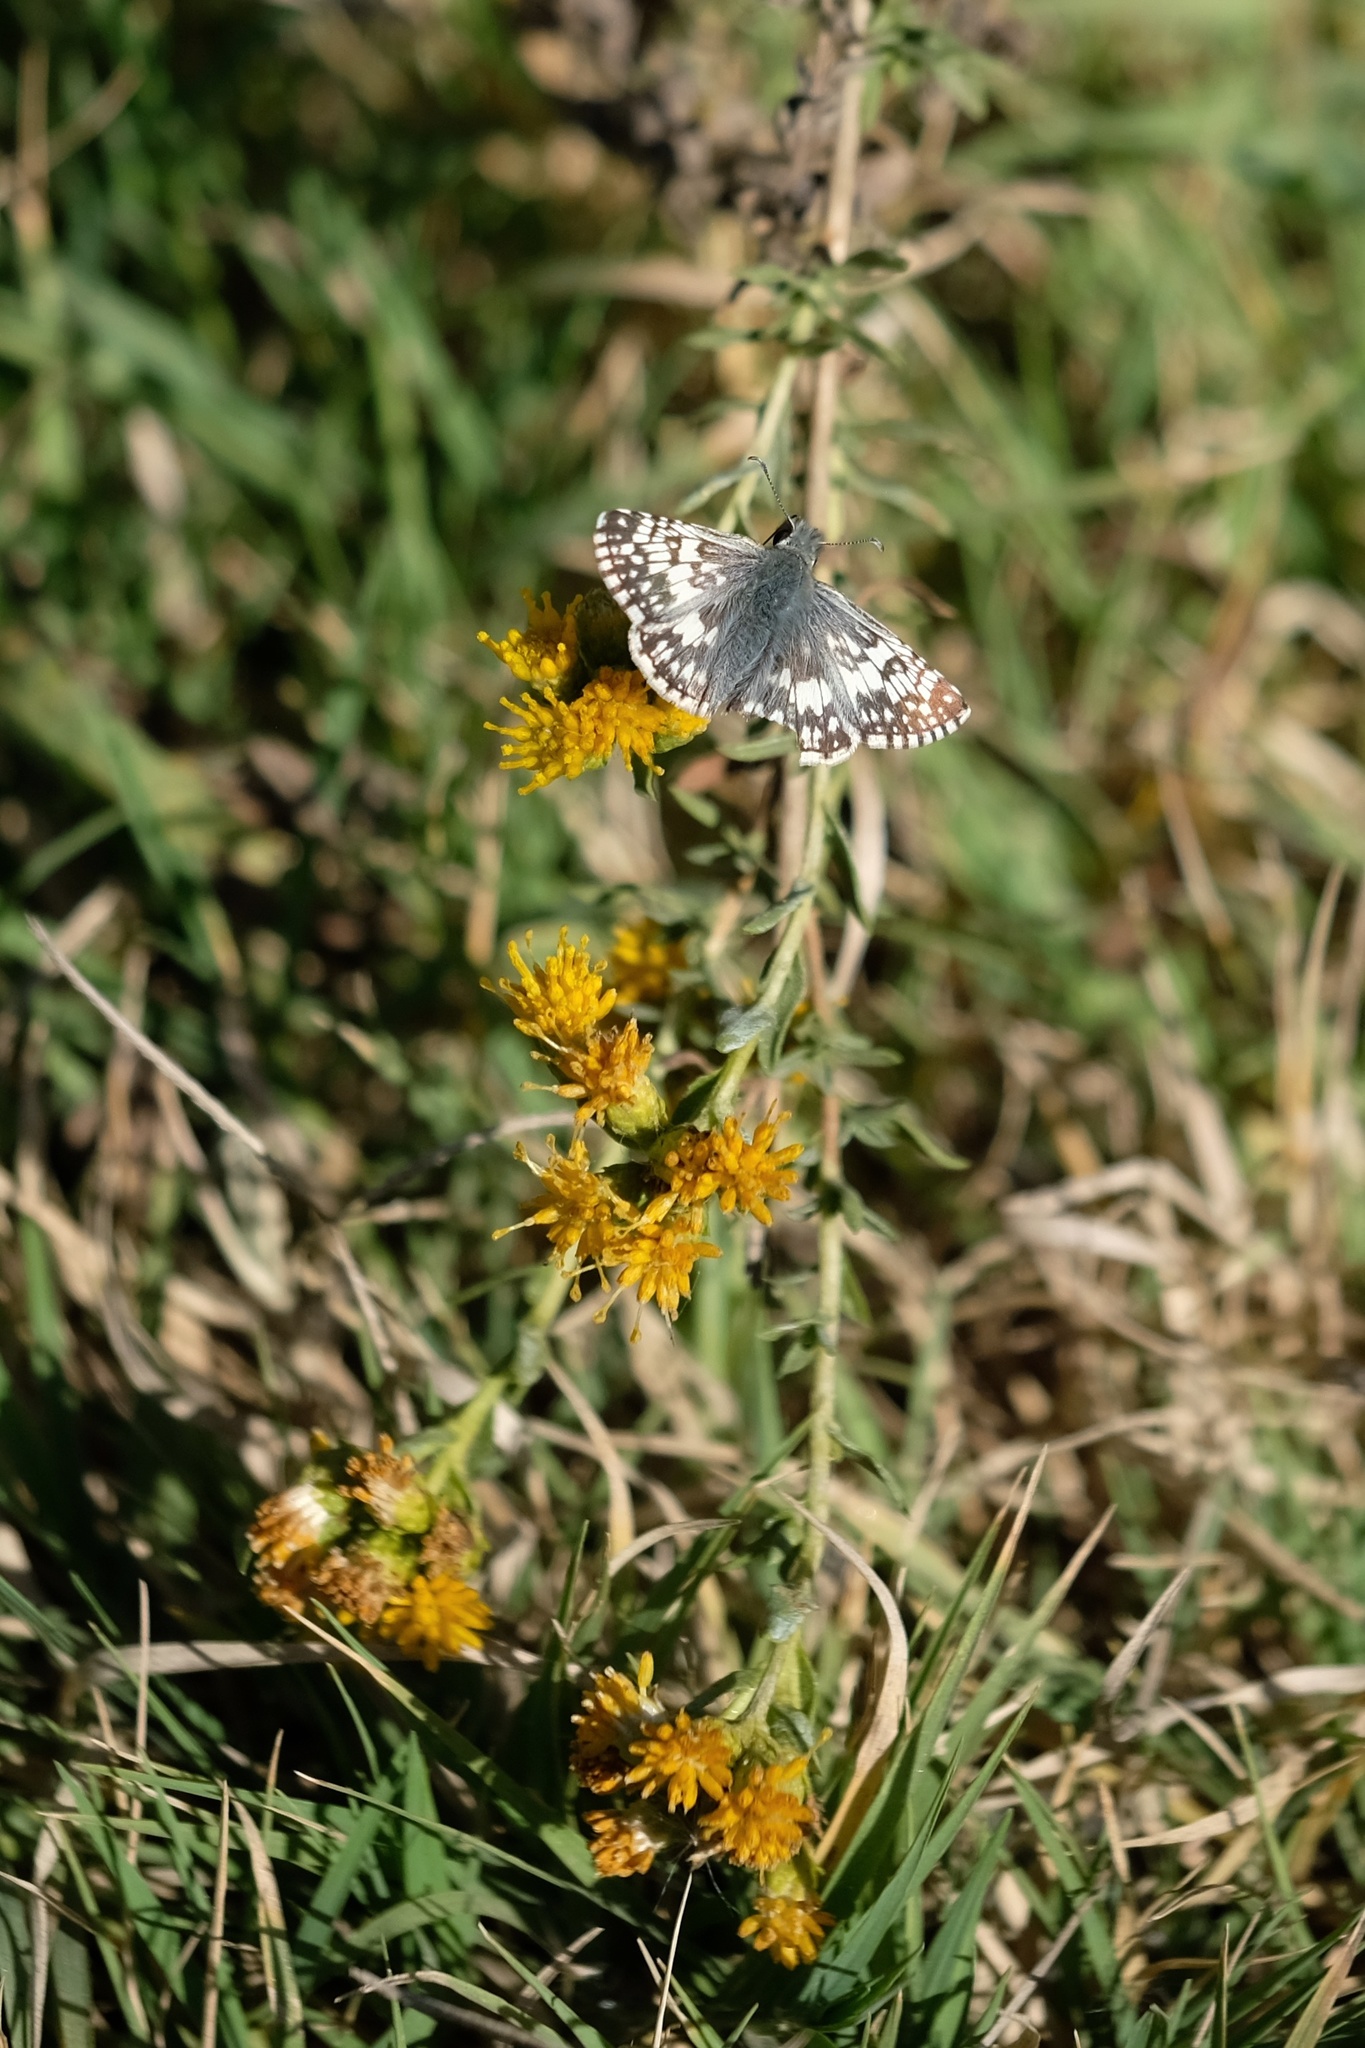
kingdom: Animalia
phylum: Arthropoda
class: Insecta
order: Lepidoptera
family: Hesperiidae
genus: Burnsius
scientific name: Burnsius albezens
